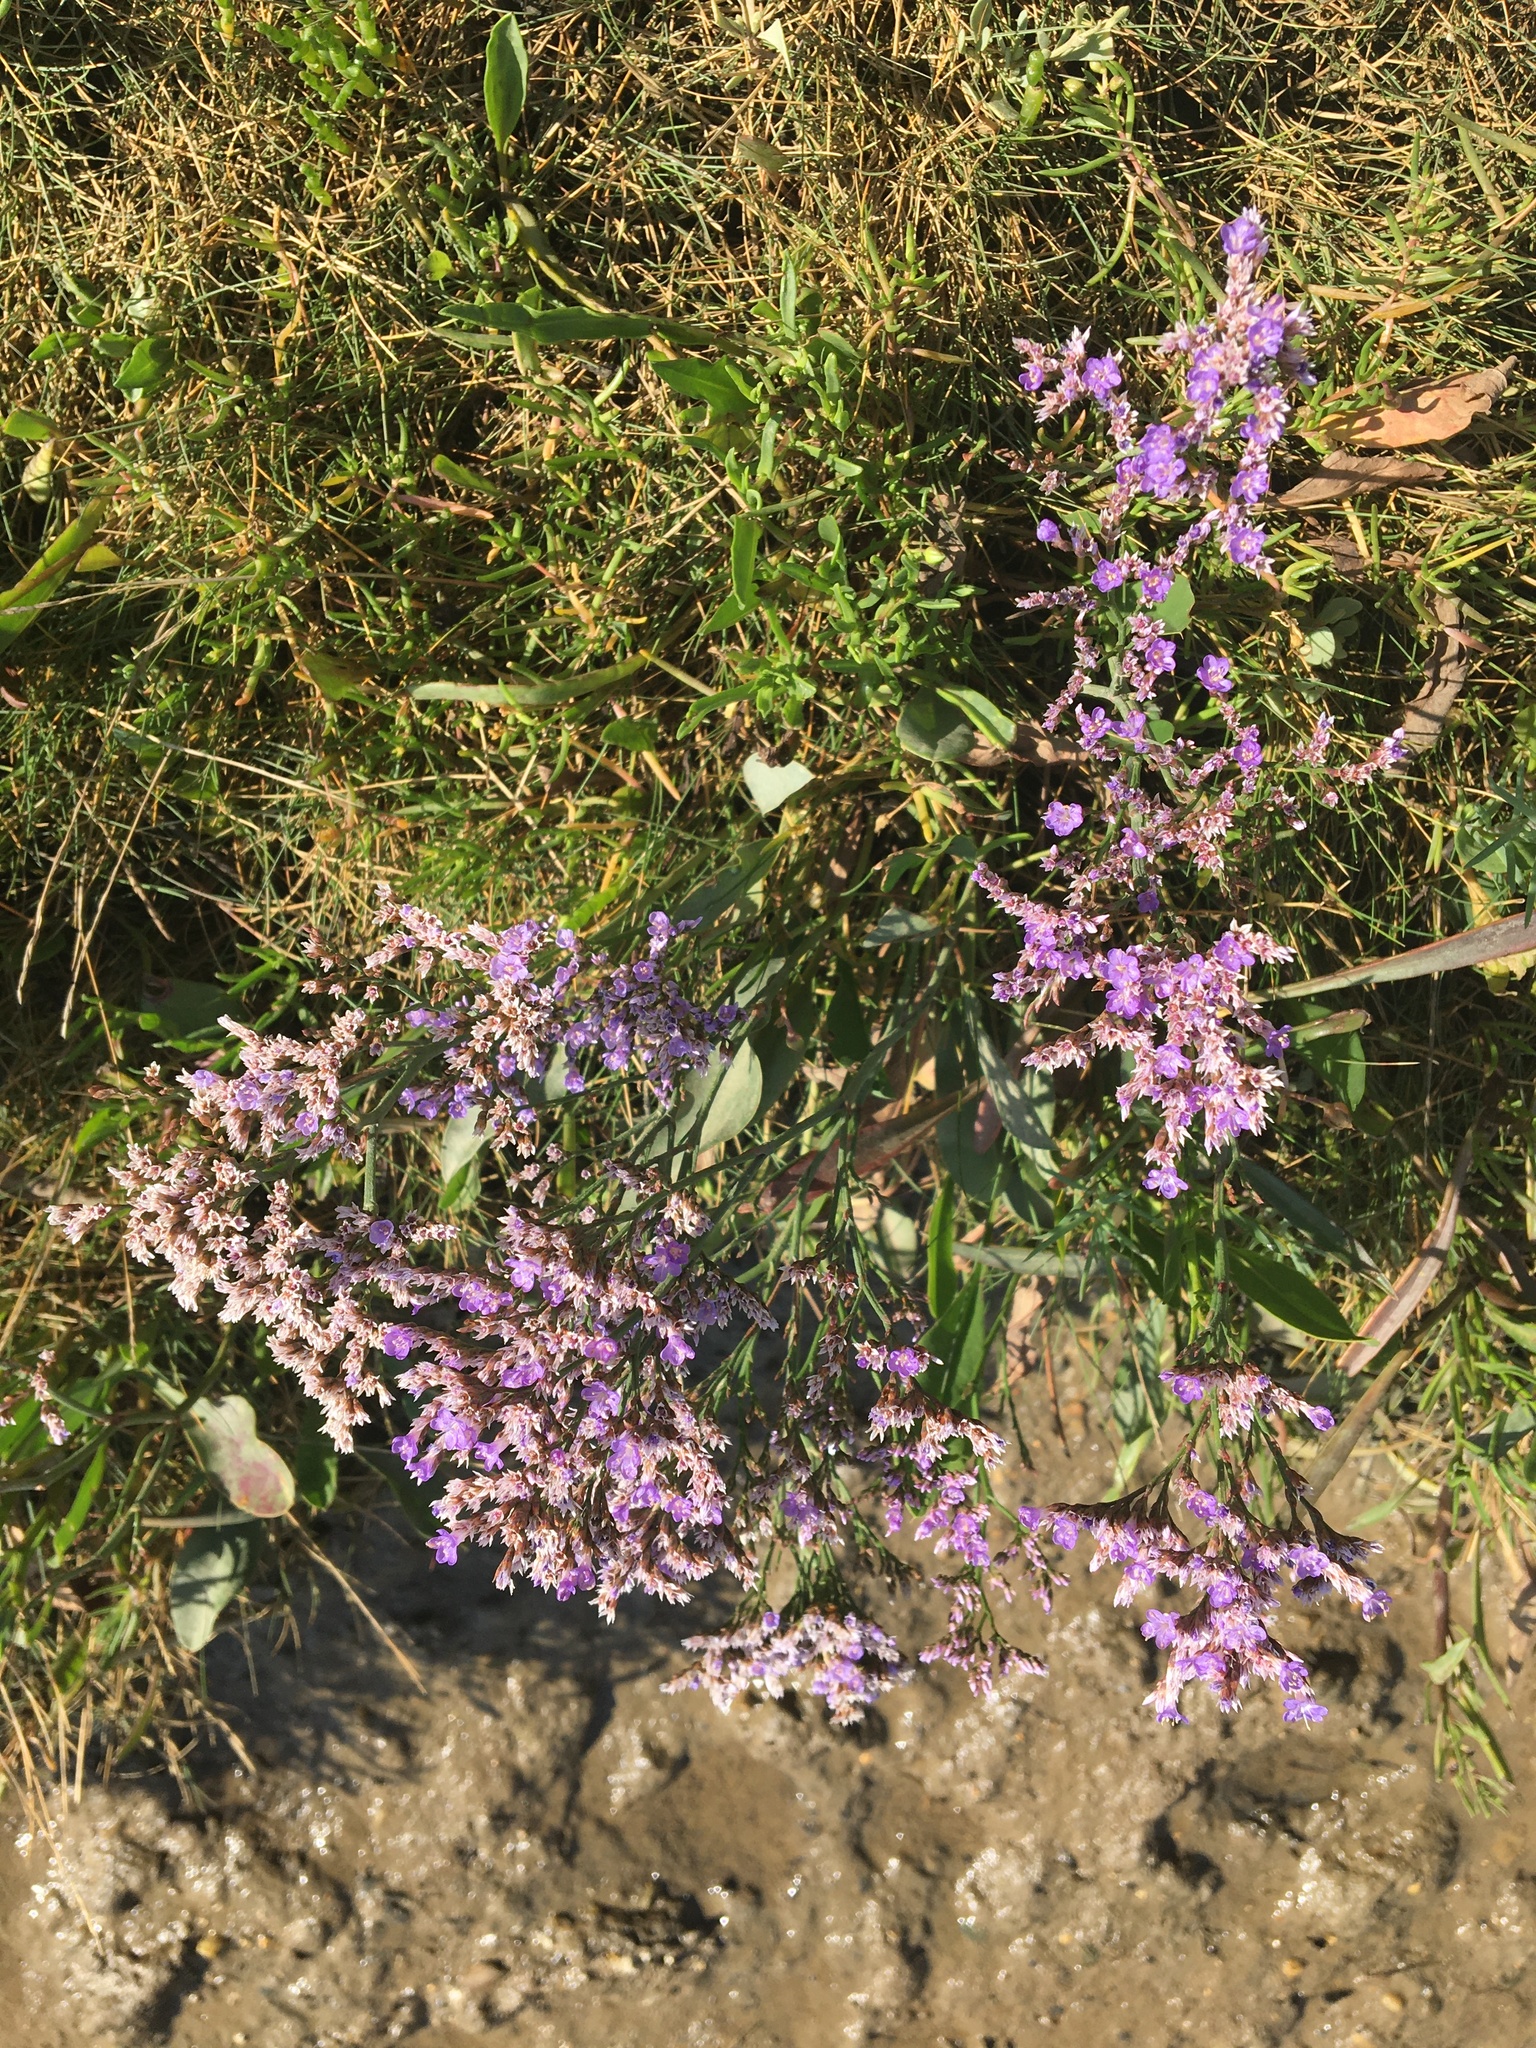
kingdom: Plantae
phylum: Tracheophyta
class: Magnoliopsida
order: Caryophyllales
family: Plumbaginaceae
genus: Limonium
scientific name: Limonium vulgare
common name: Common sea-lavender
